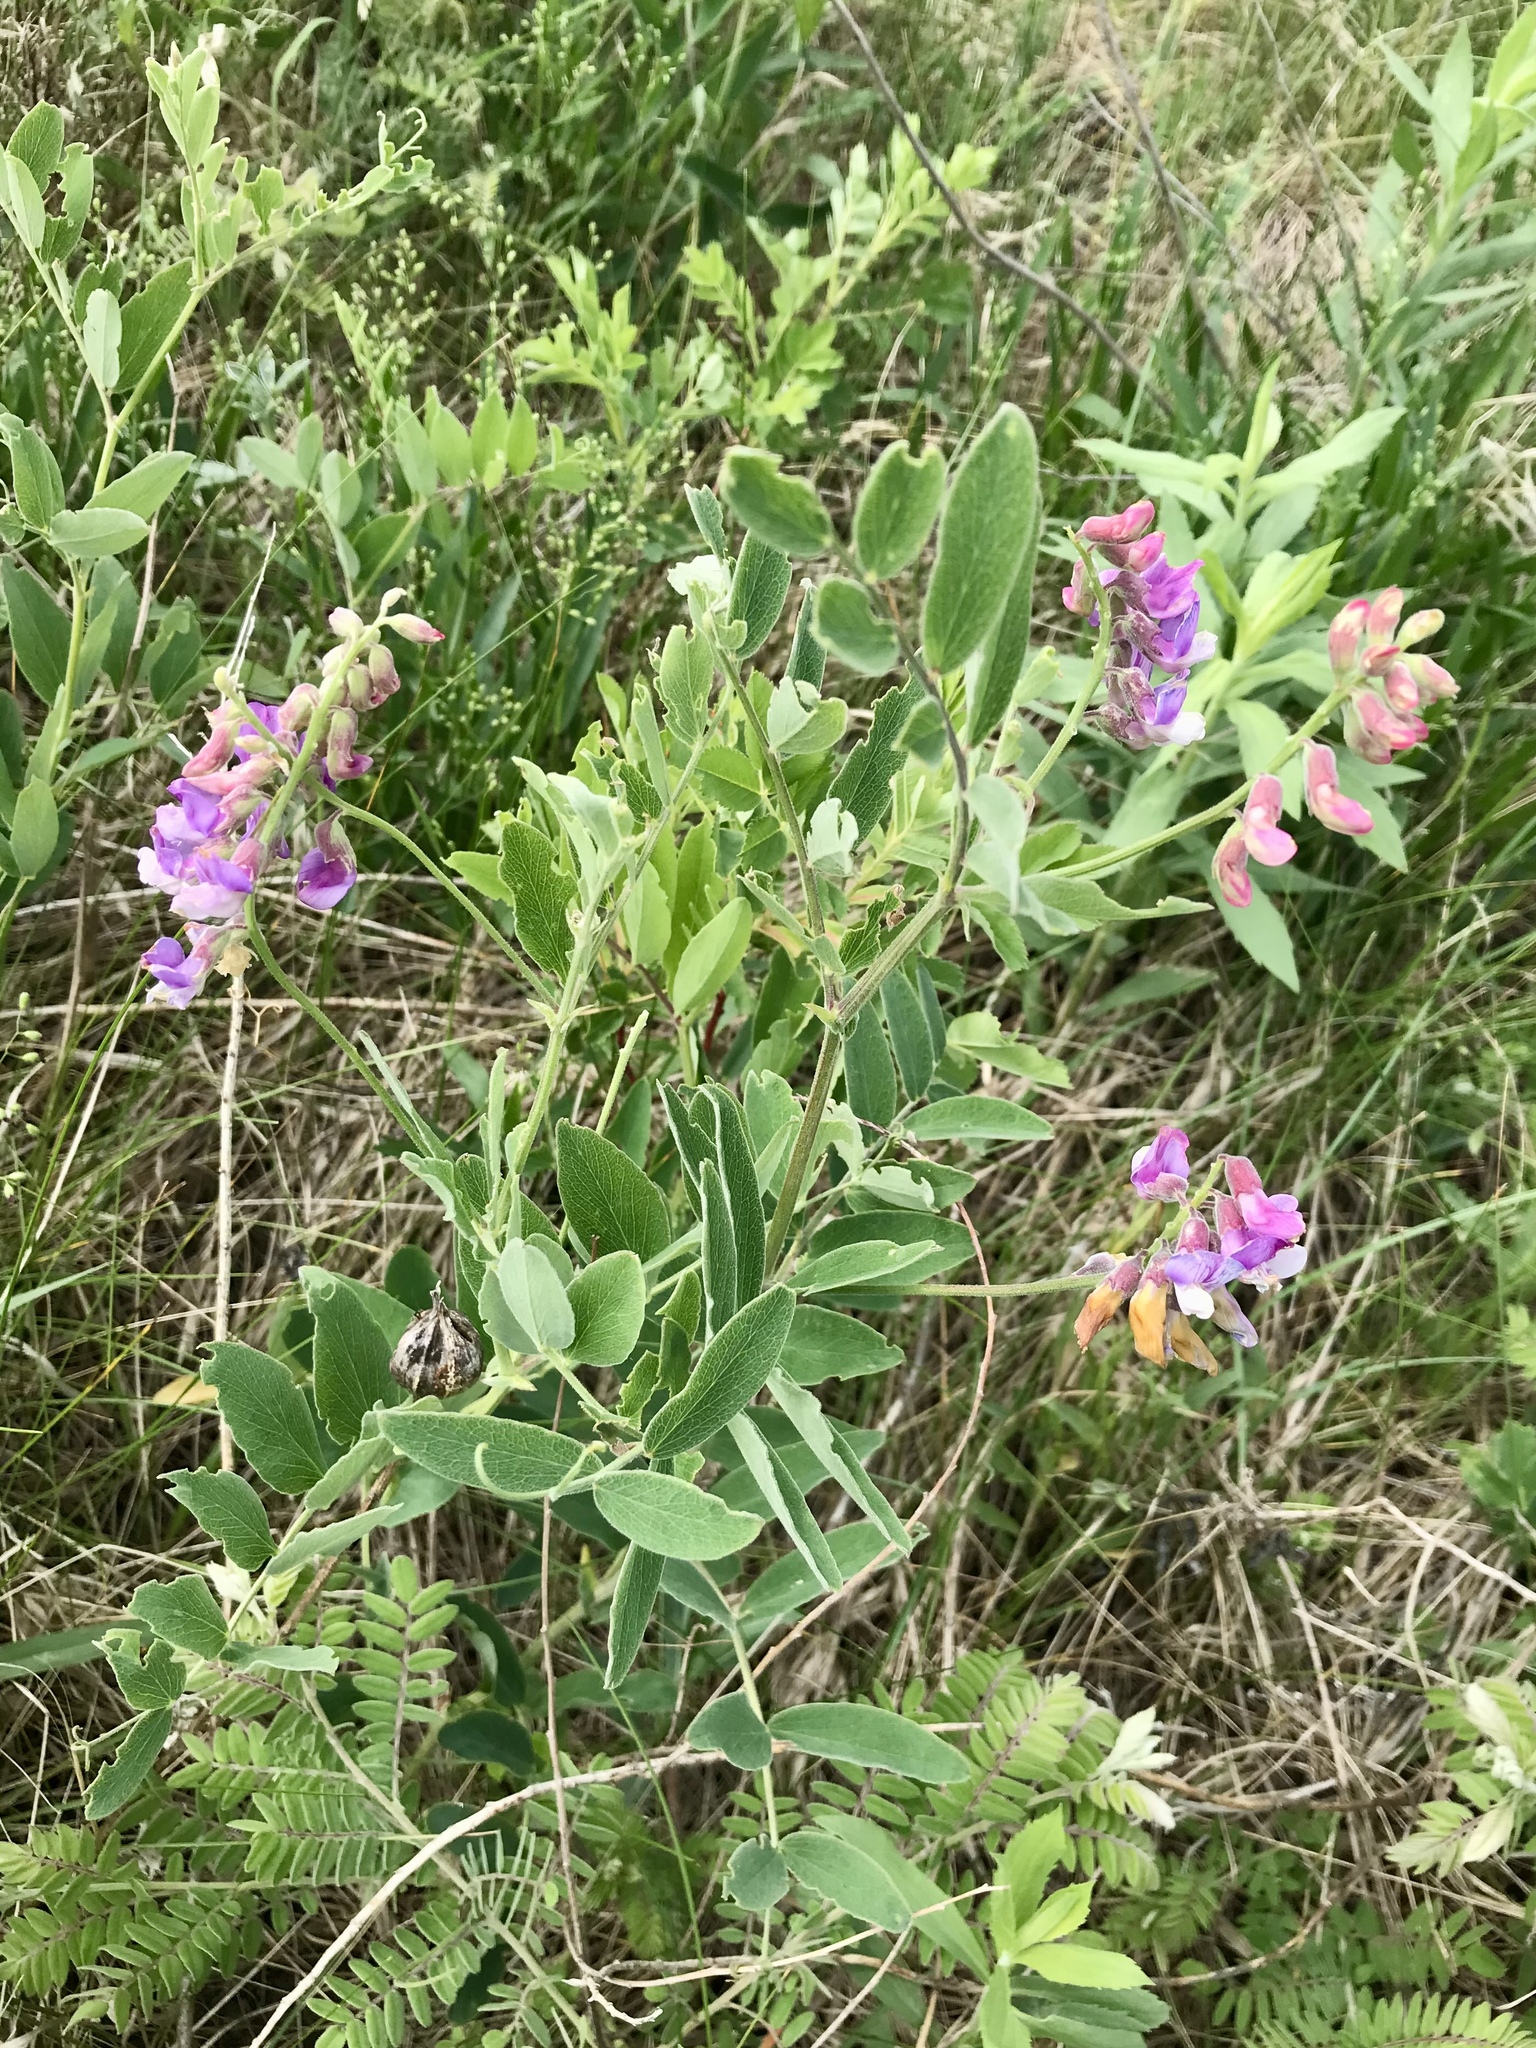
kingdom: Plantae
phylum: Tracheophyta
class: Magnoliopsida
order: Fabales
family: Fabaceae
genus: Lathyrus
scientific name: Lathyrus venosus
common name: Forest-pea
